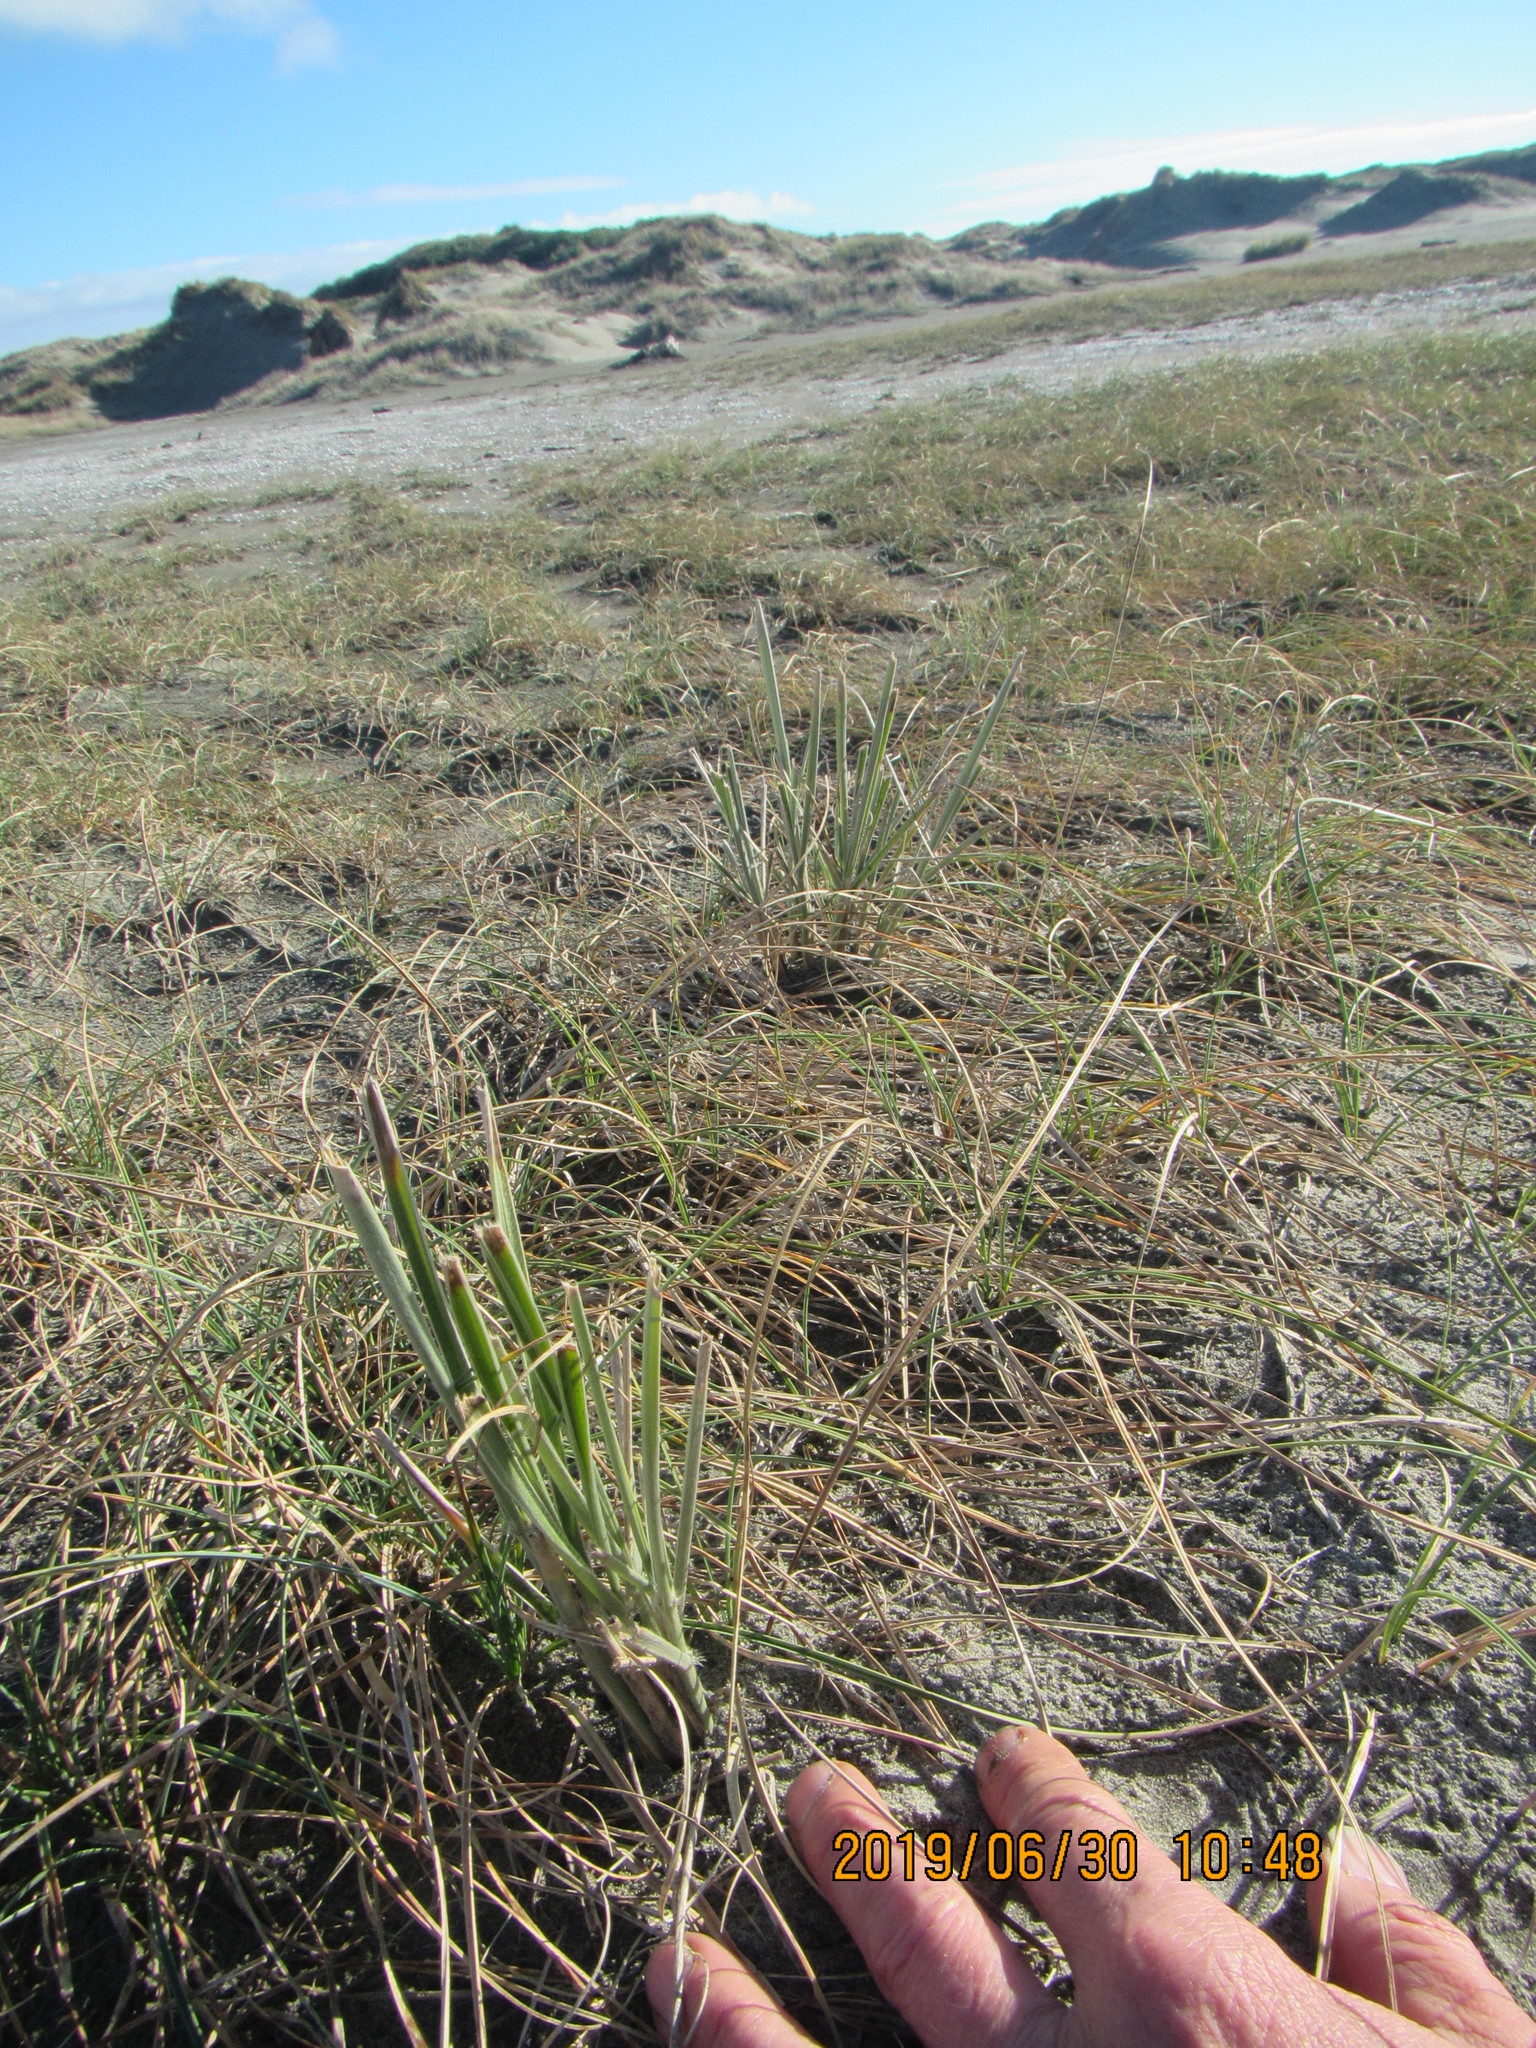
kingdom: Plantae
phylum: Tracheophyta
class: Liliopsida
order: Poales
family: Poaceae
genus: Spinifex
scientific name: Spinifex sericeus
